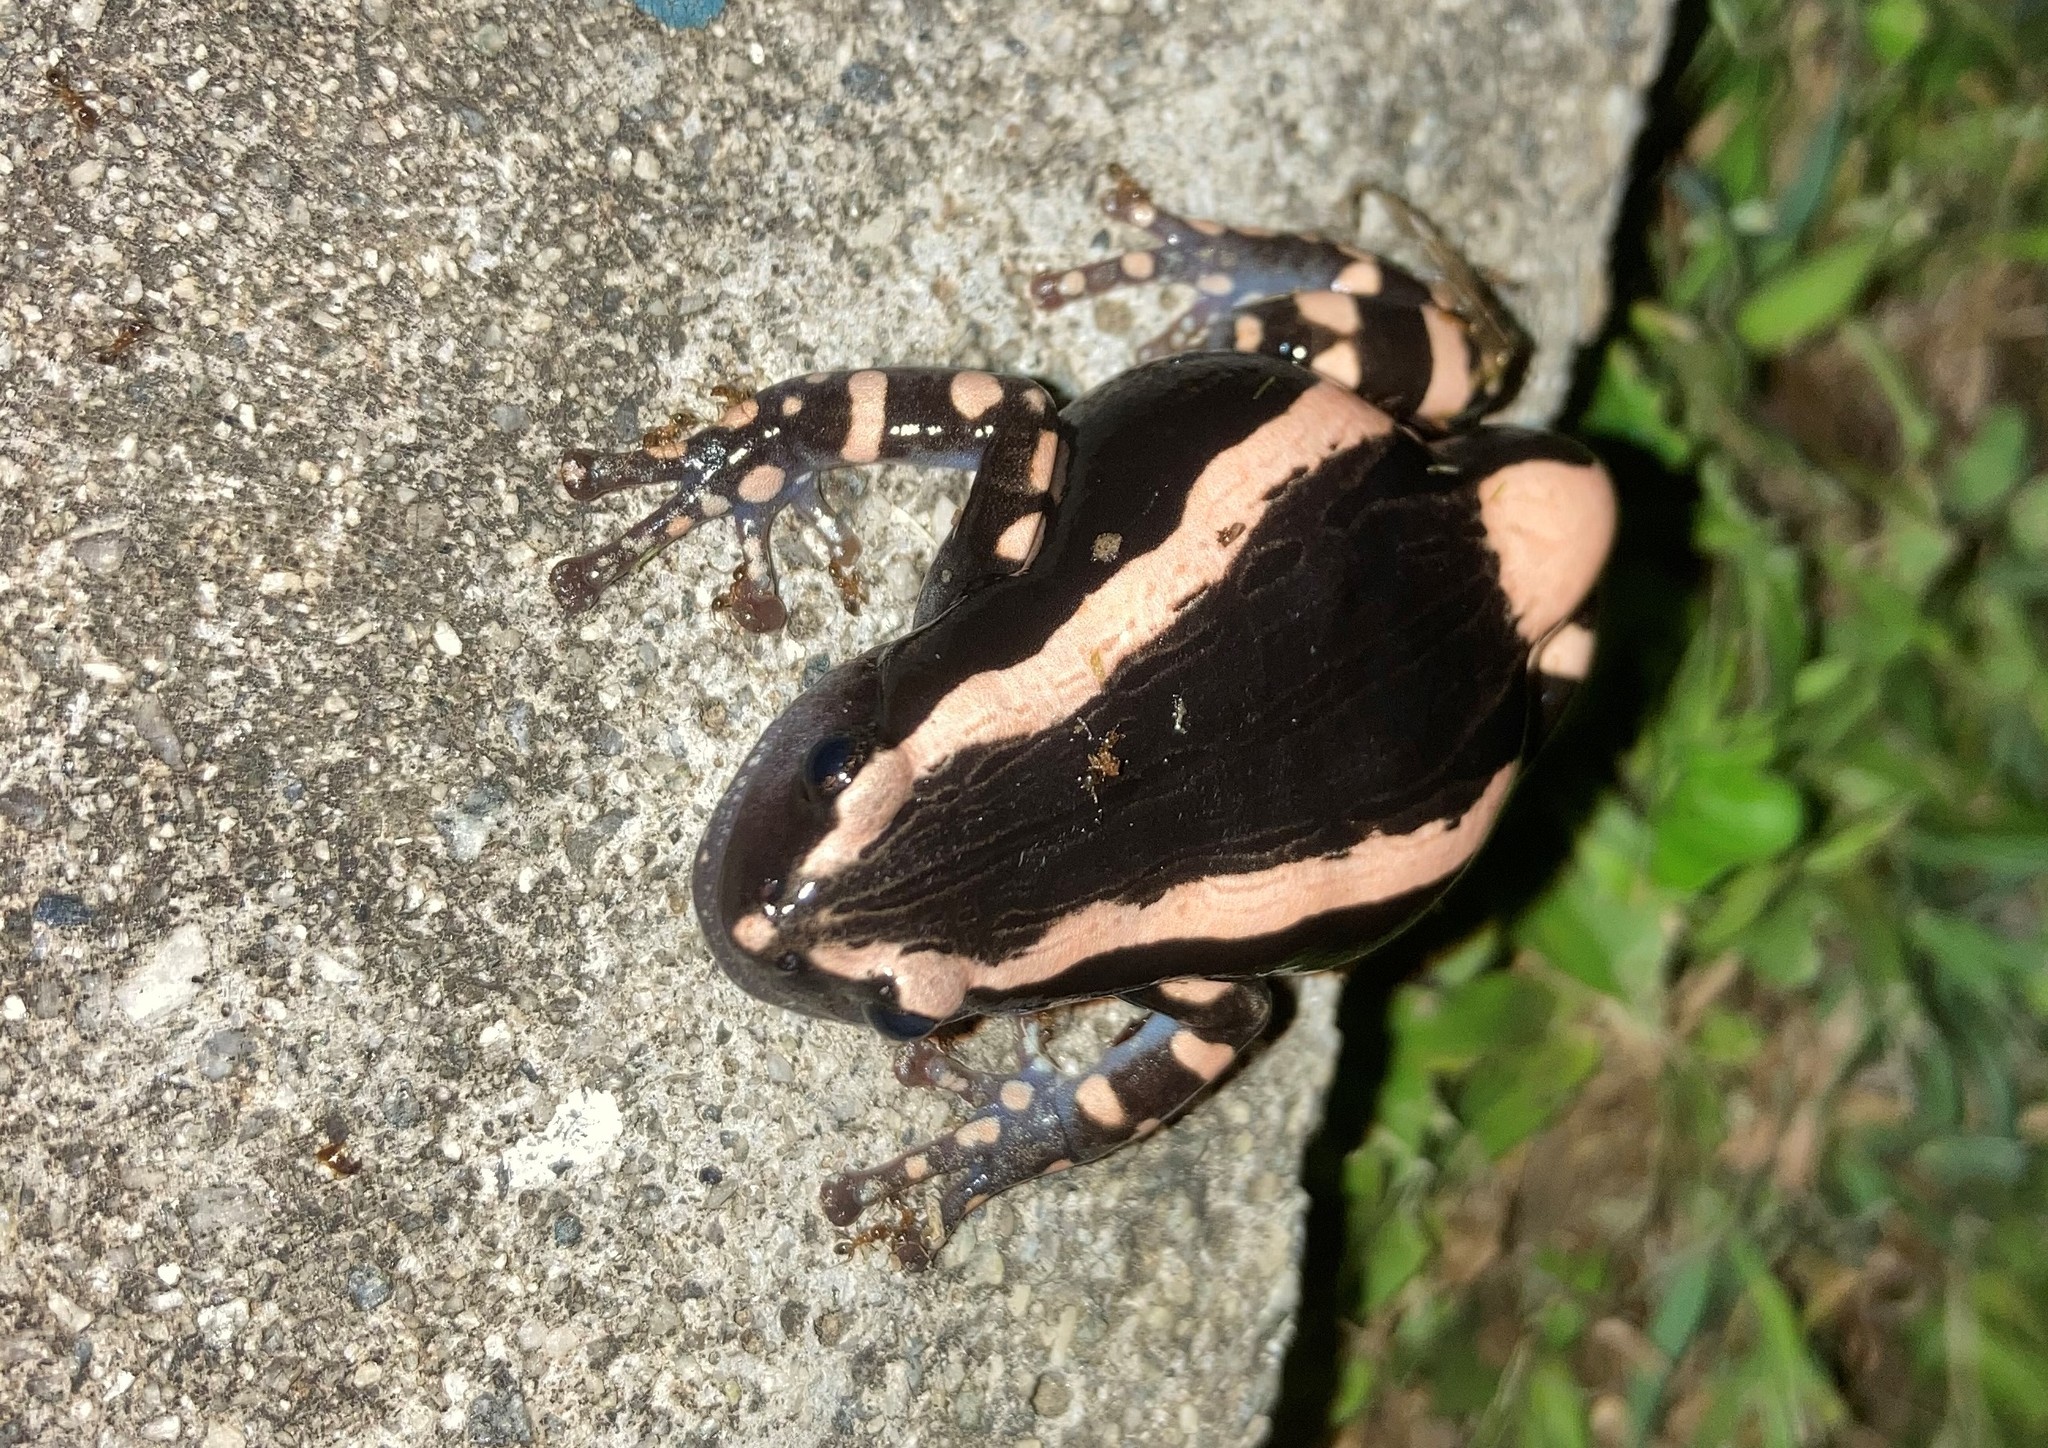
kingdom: Animalia
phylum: Chordata
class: Amphibia
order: Anura
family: Microhylidae
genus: Phrynomantis
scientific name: Phrynomantis bifasciatus
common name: Banded rubber frog
